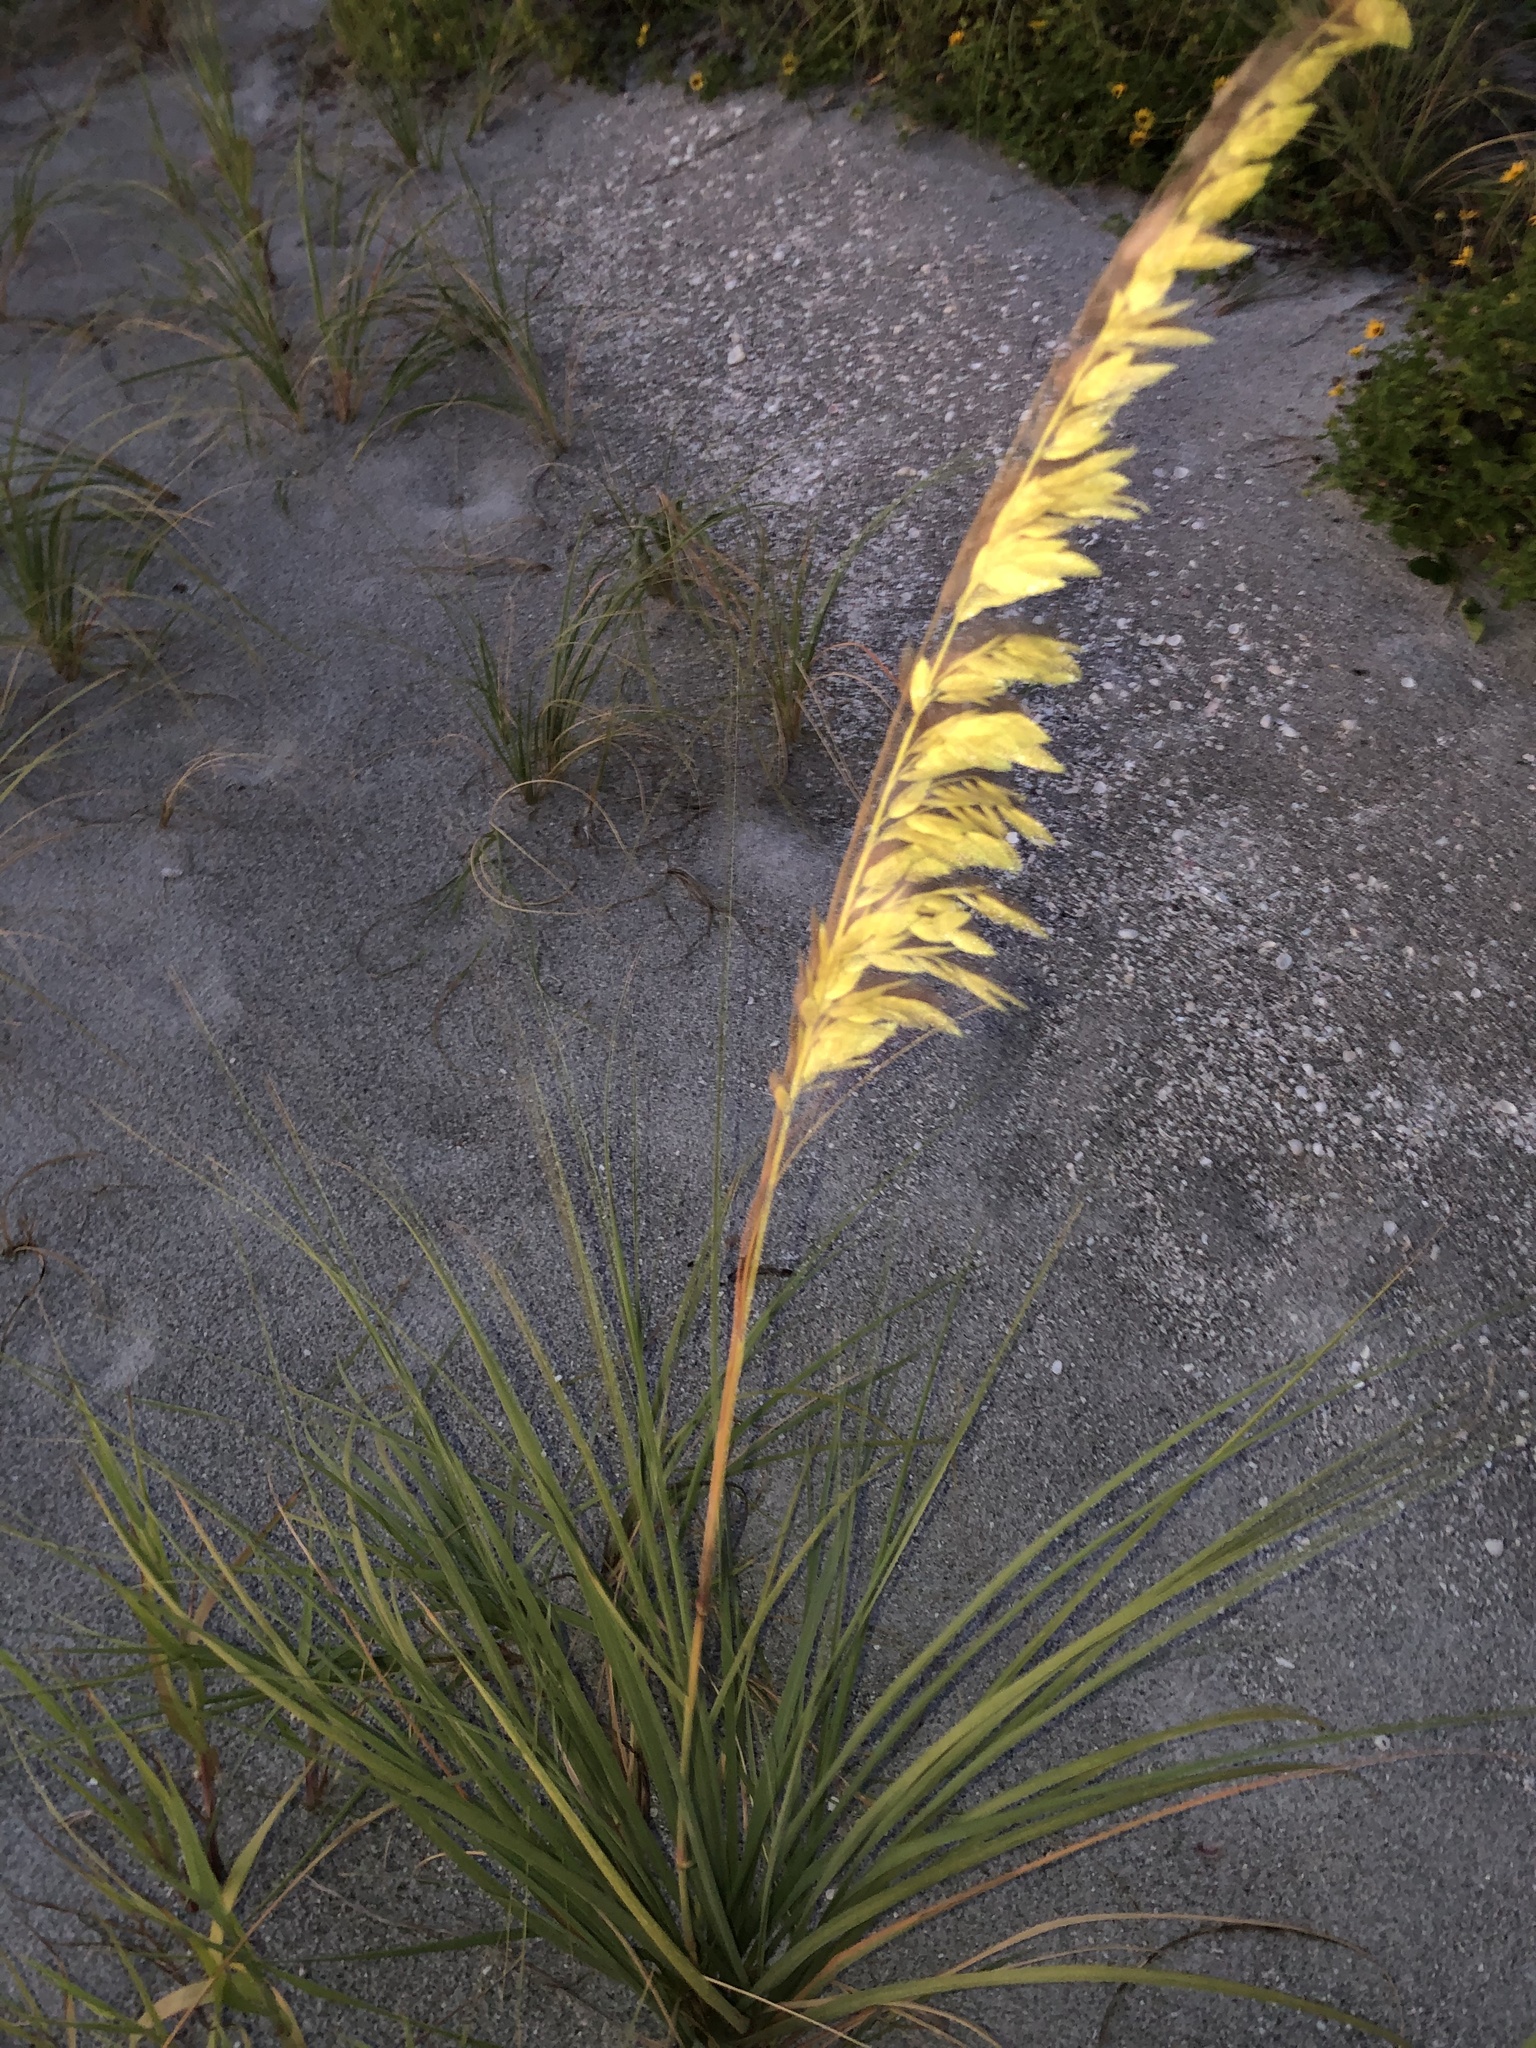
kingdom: Plantae
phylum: Tracheophyta
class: Liliopsida
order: Poales
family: Poaceae
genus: Uniola
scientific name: Uniola paniculata
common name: Seaside-oats
